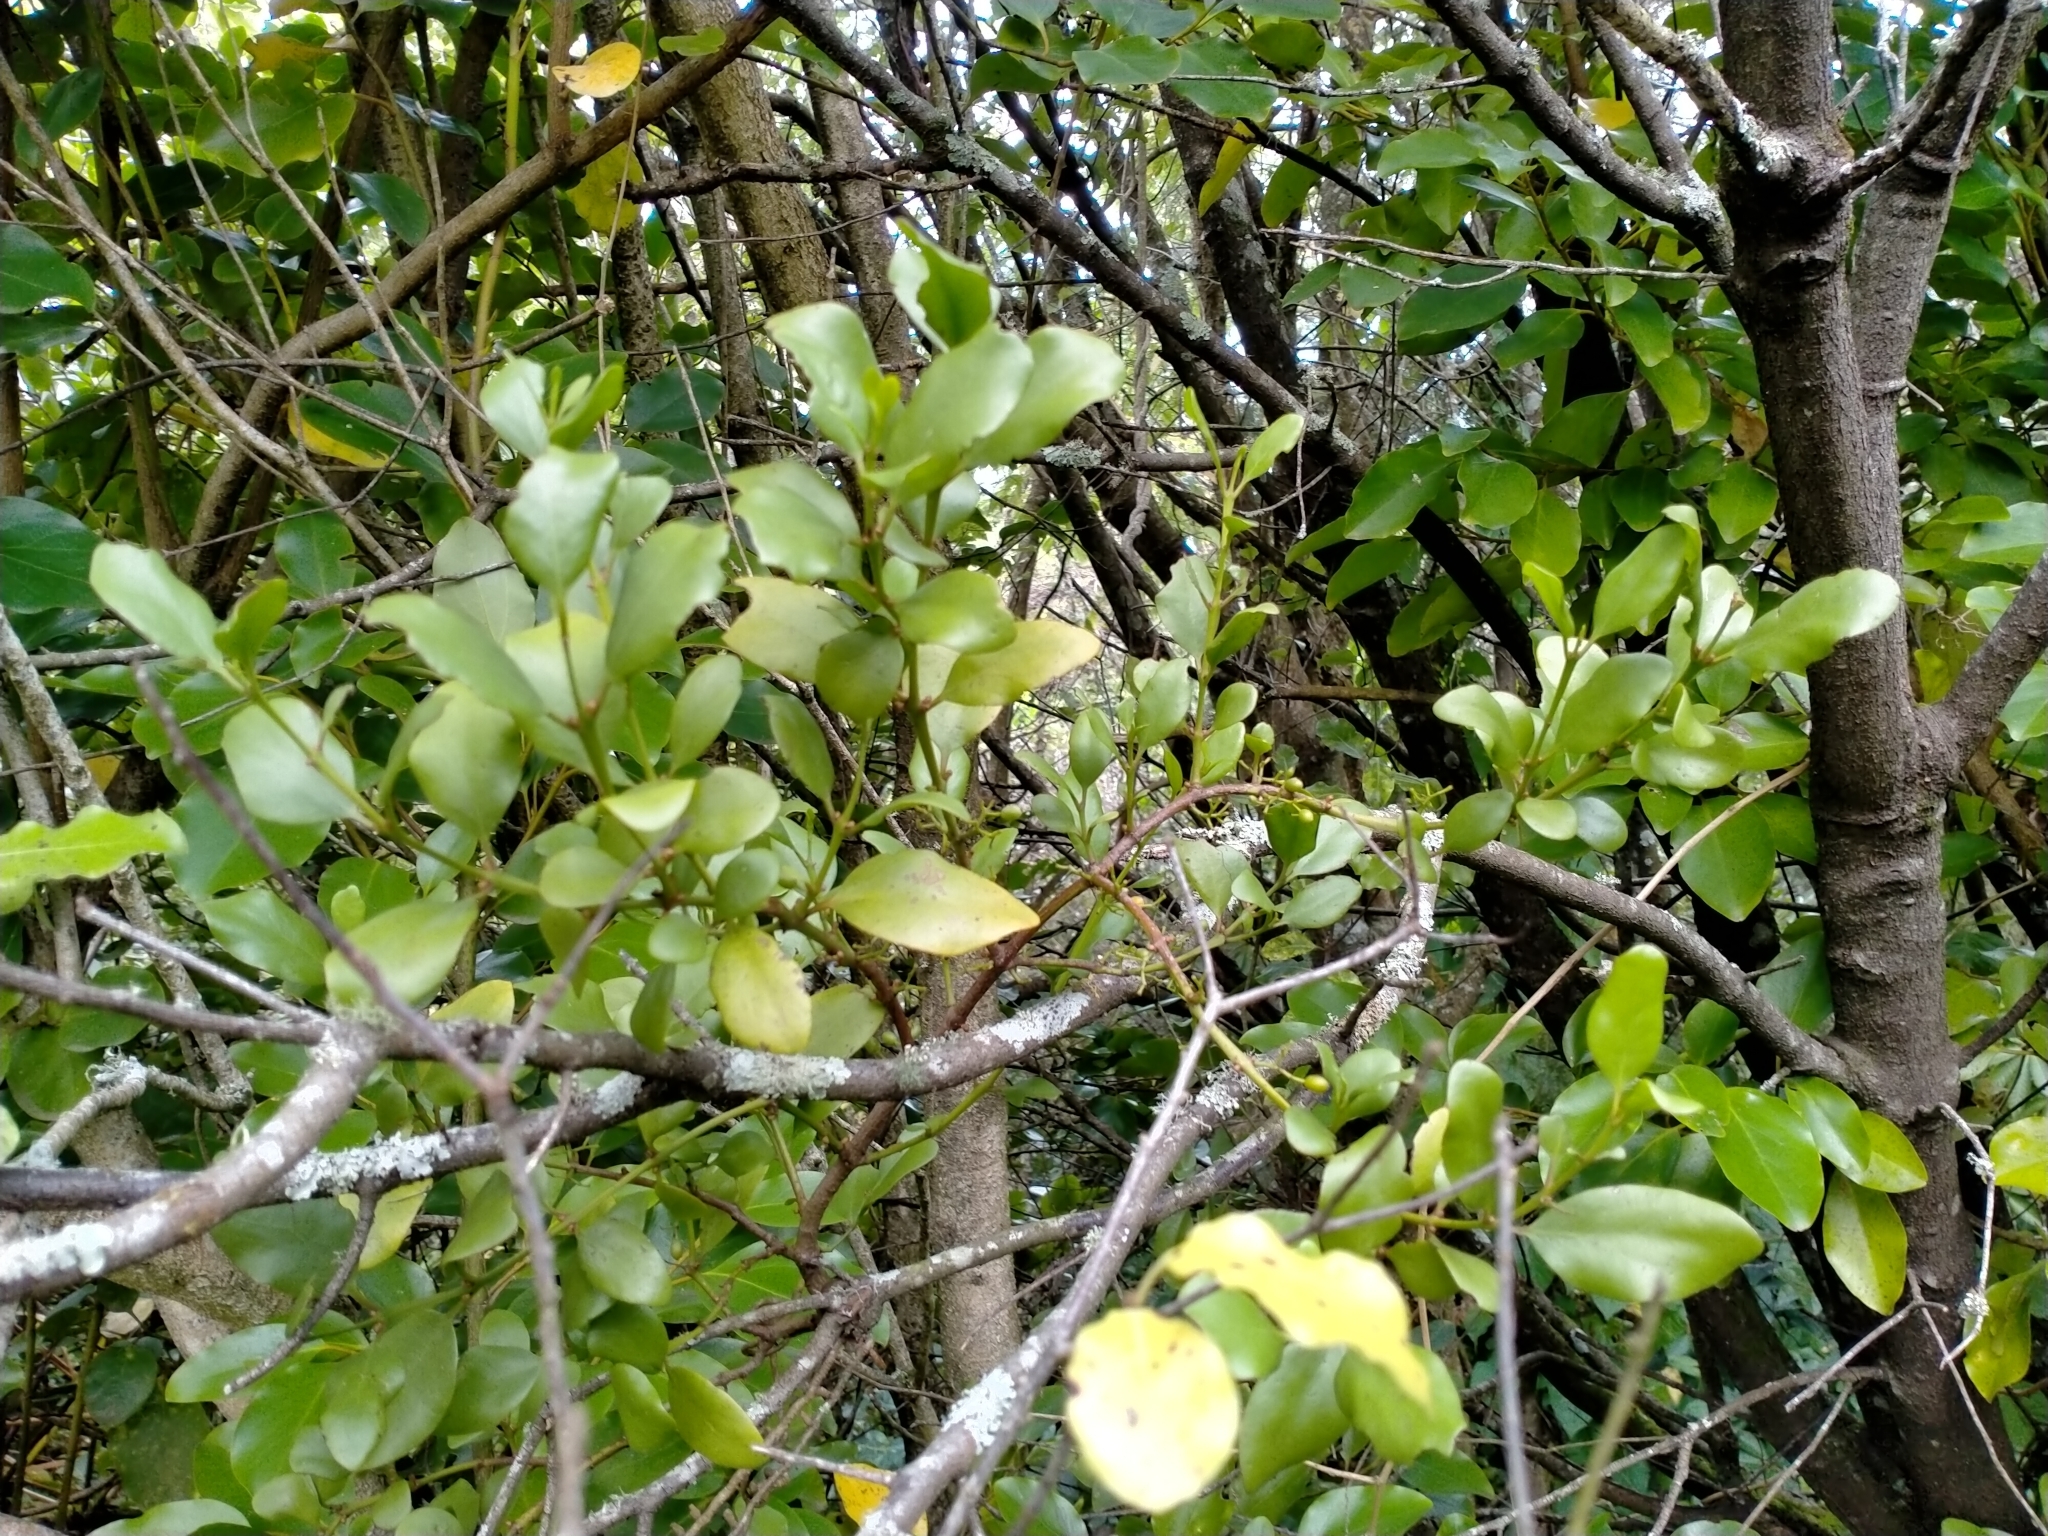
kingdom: Plantae
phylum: Tracheophyta
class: Magnoliopsida
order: Santalales
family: Loranthaceae
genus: Ileostylus
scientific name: Ileostylus micranthus
